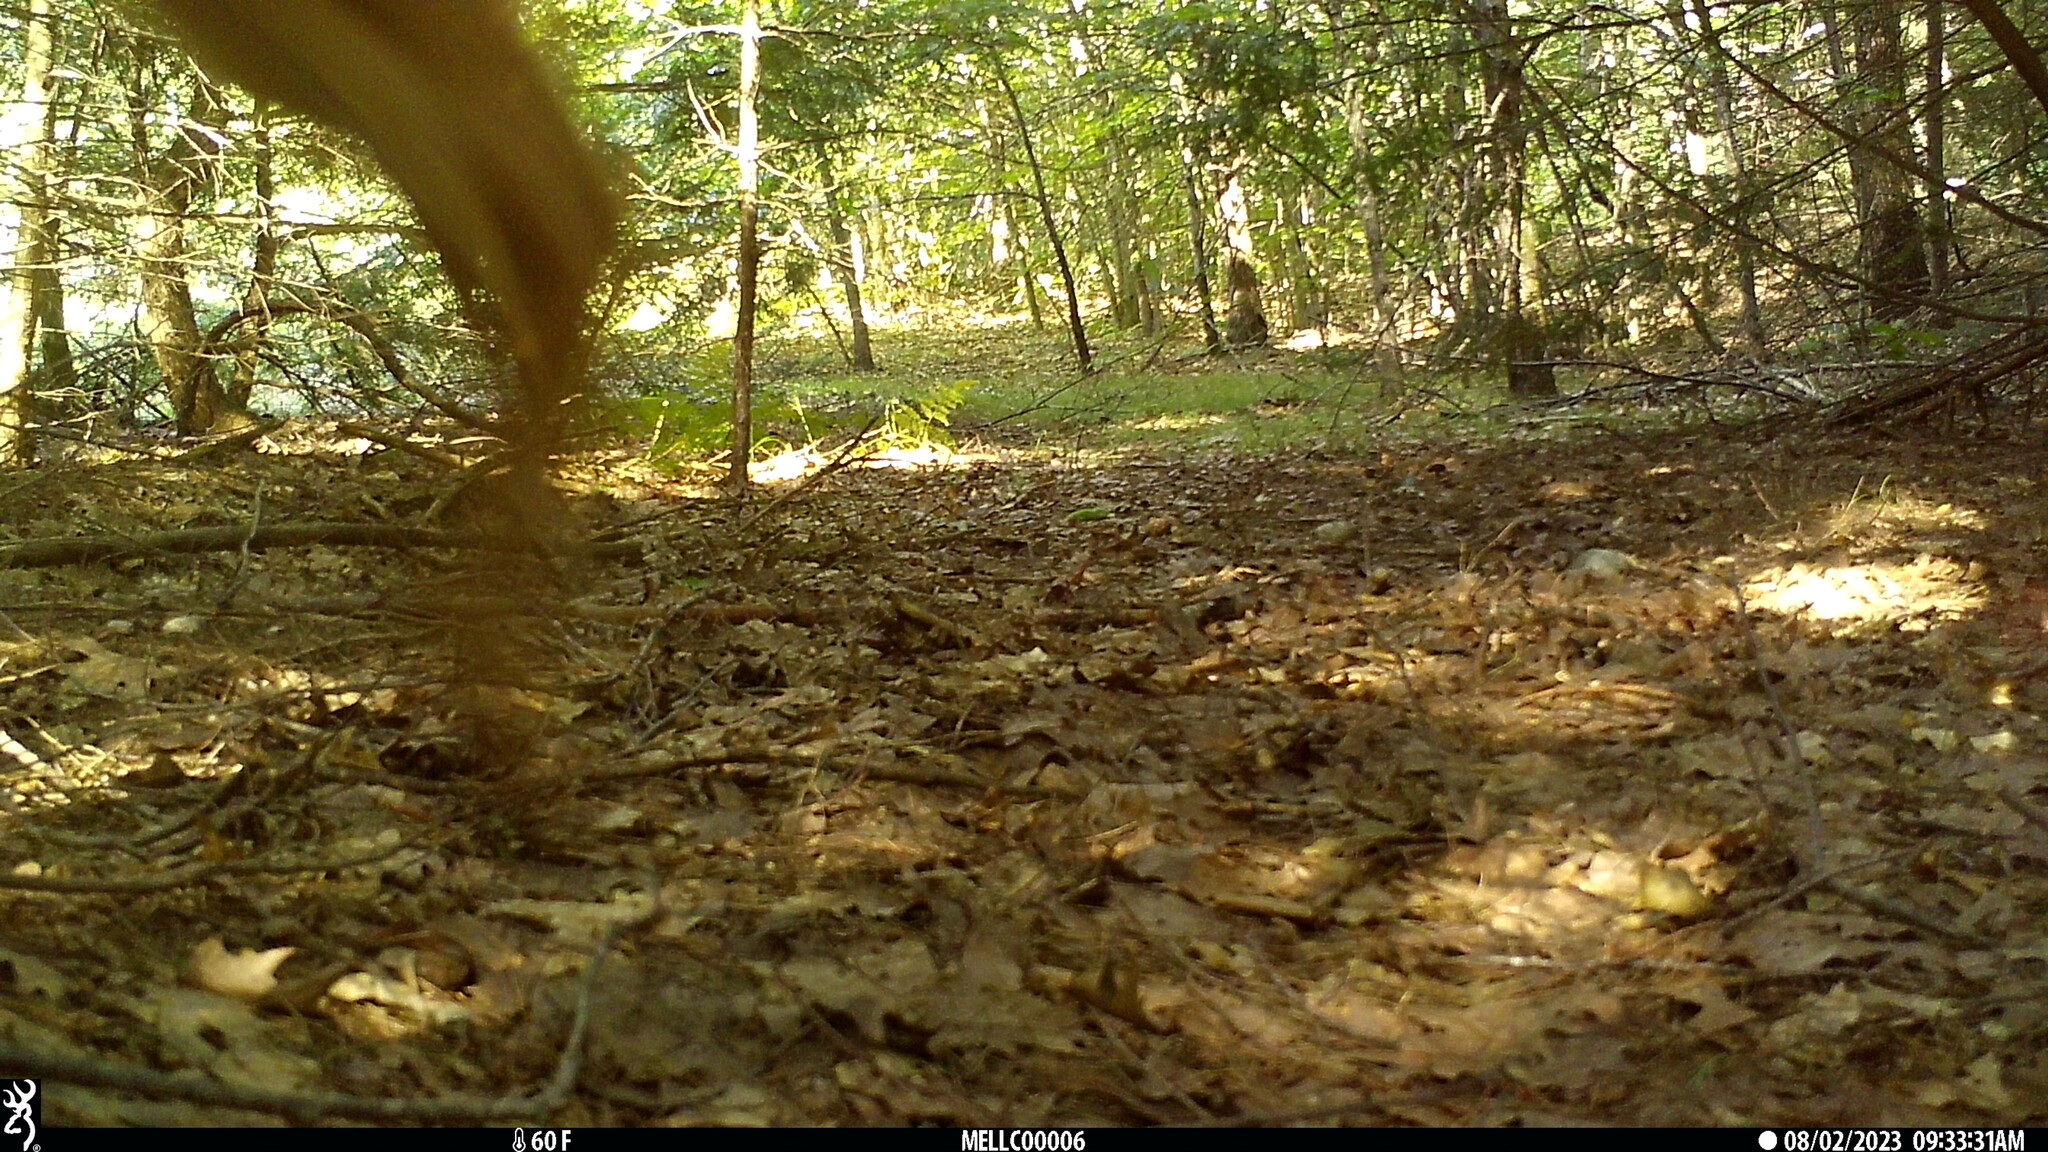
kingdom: Animalia
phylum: Chordata
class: Mammalia
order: Artiodactyla
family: Cervidae
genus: Odocoileus
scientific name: Odocoileus virginianus
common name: White-tailed deer
